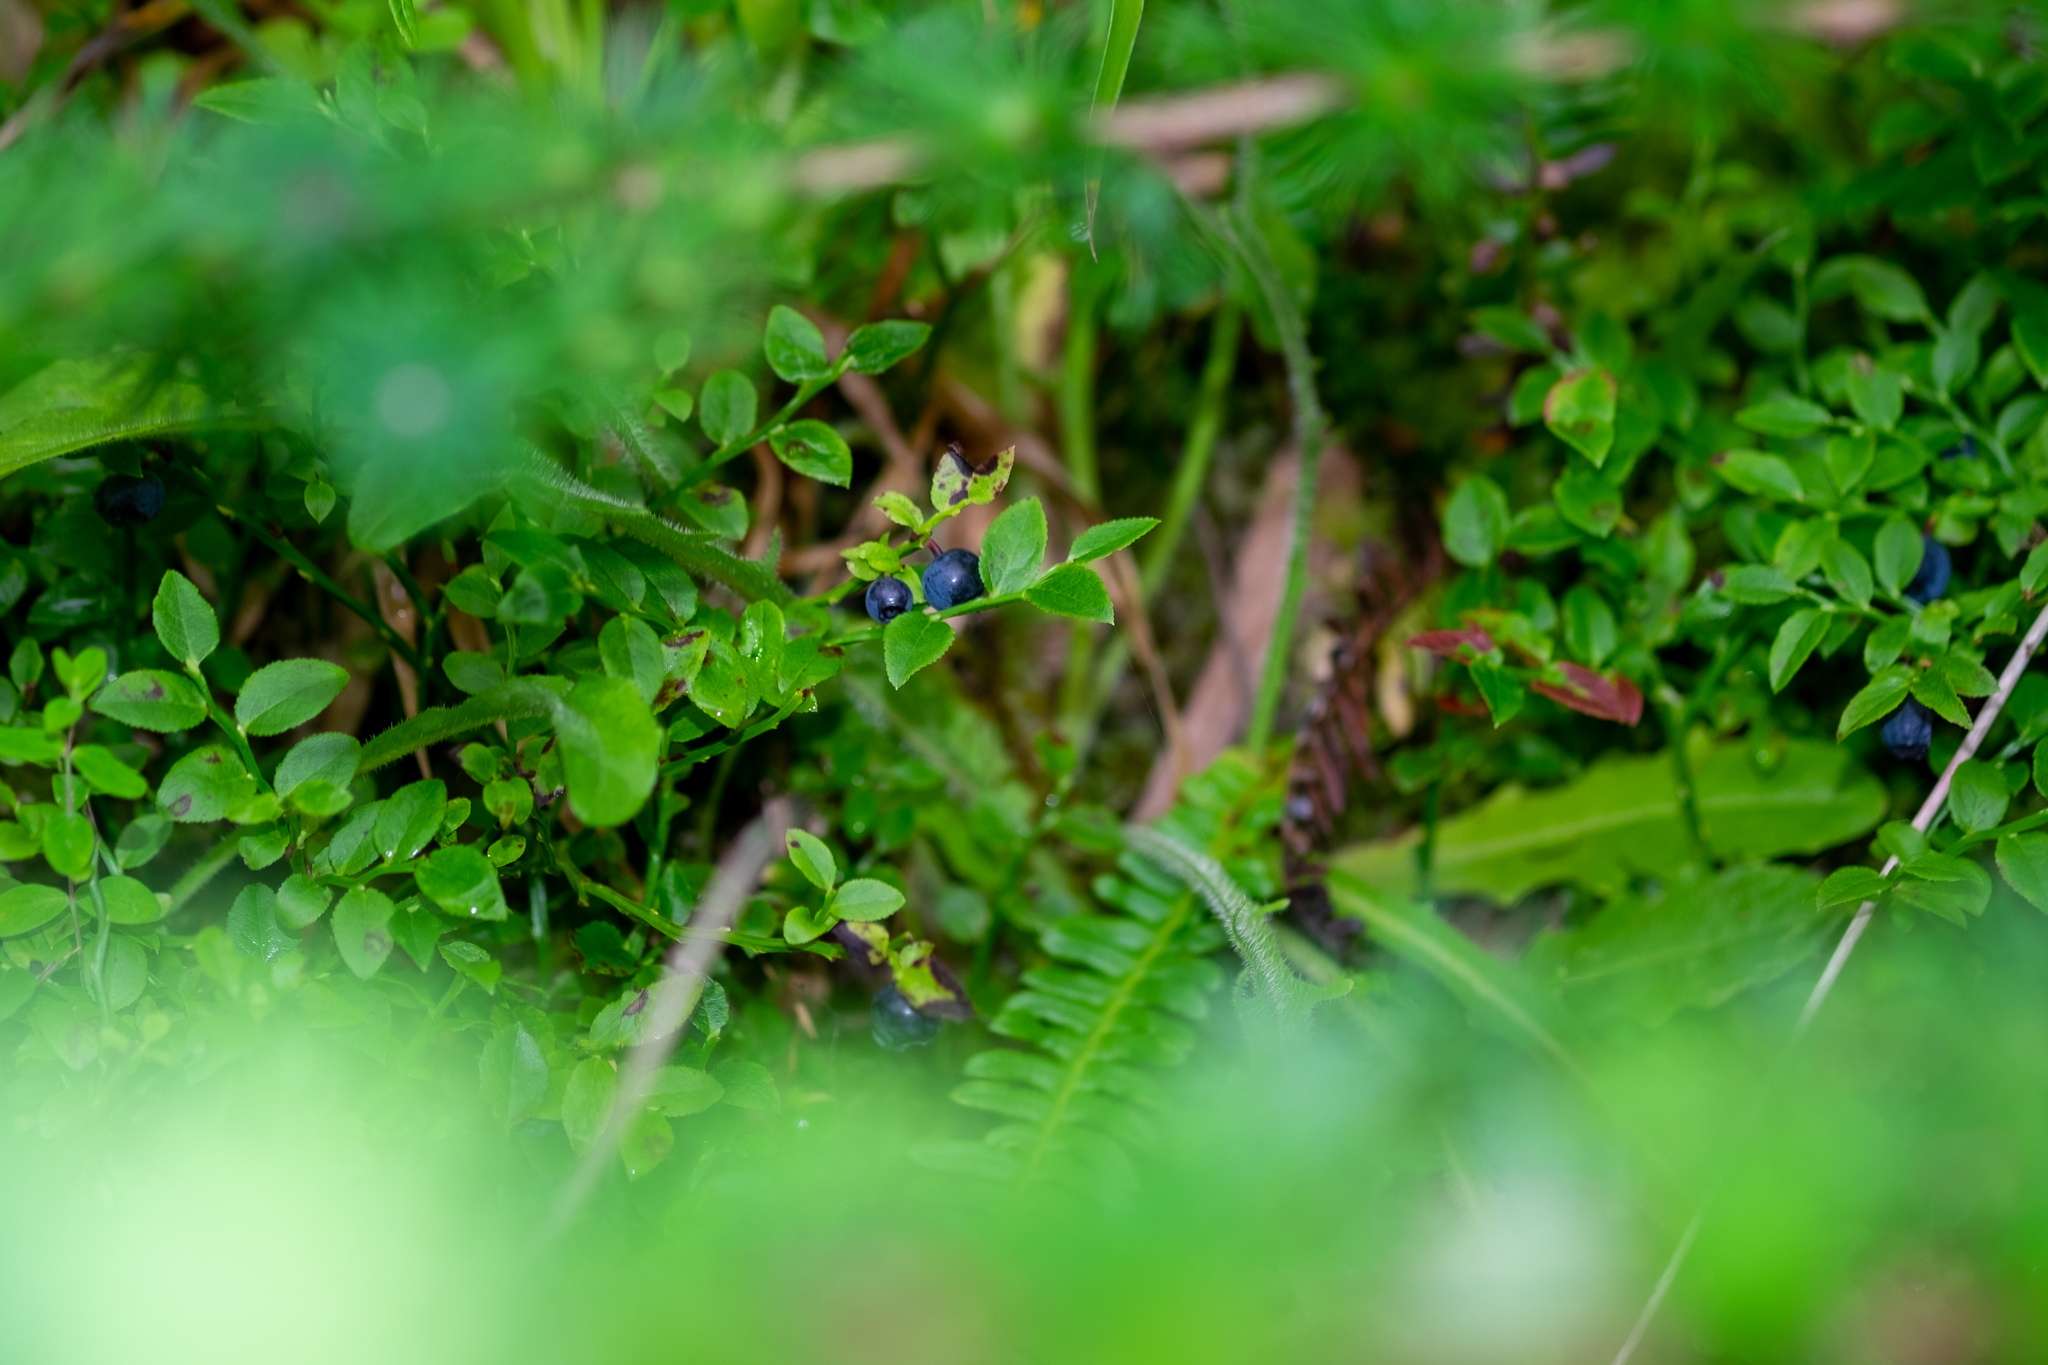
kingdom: Plantae
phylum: Tracheophyta
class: Magnoliopsida
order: Ericales
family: Ericaceae
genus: Vaccinium
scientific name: Vaccinium myrtillus
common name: Bilberry
